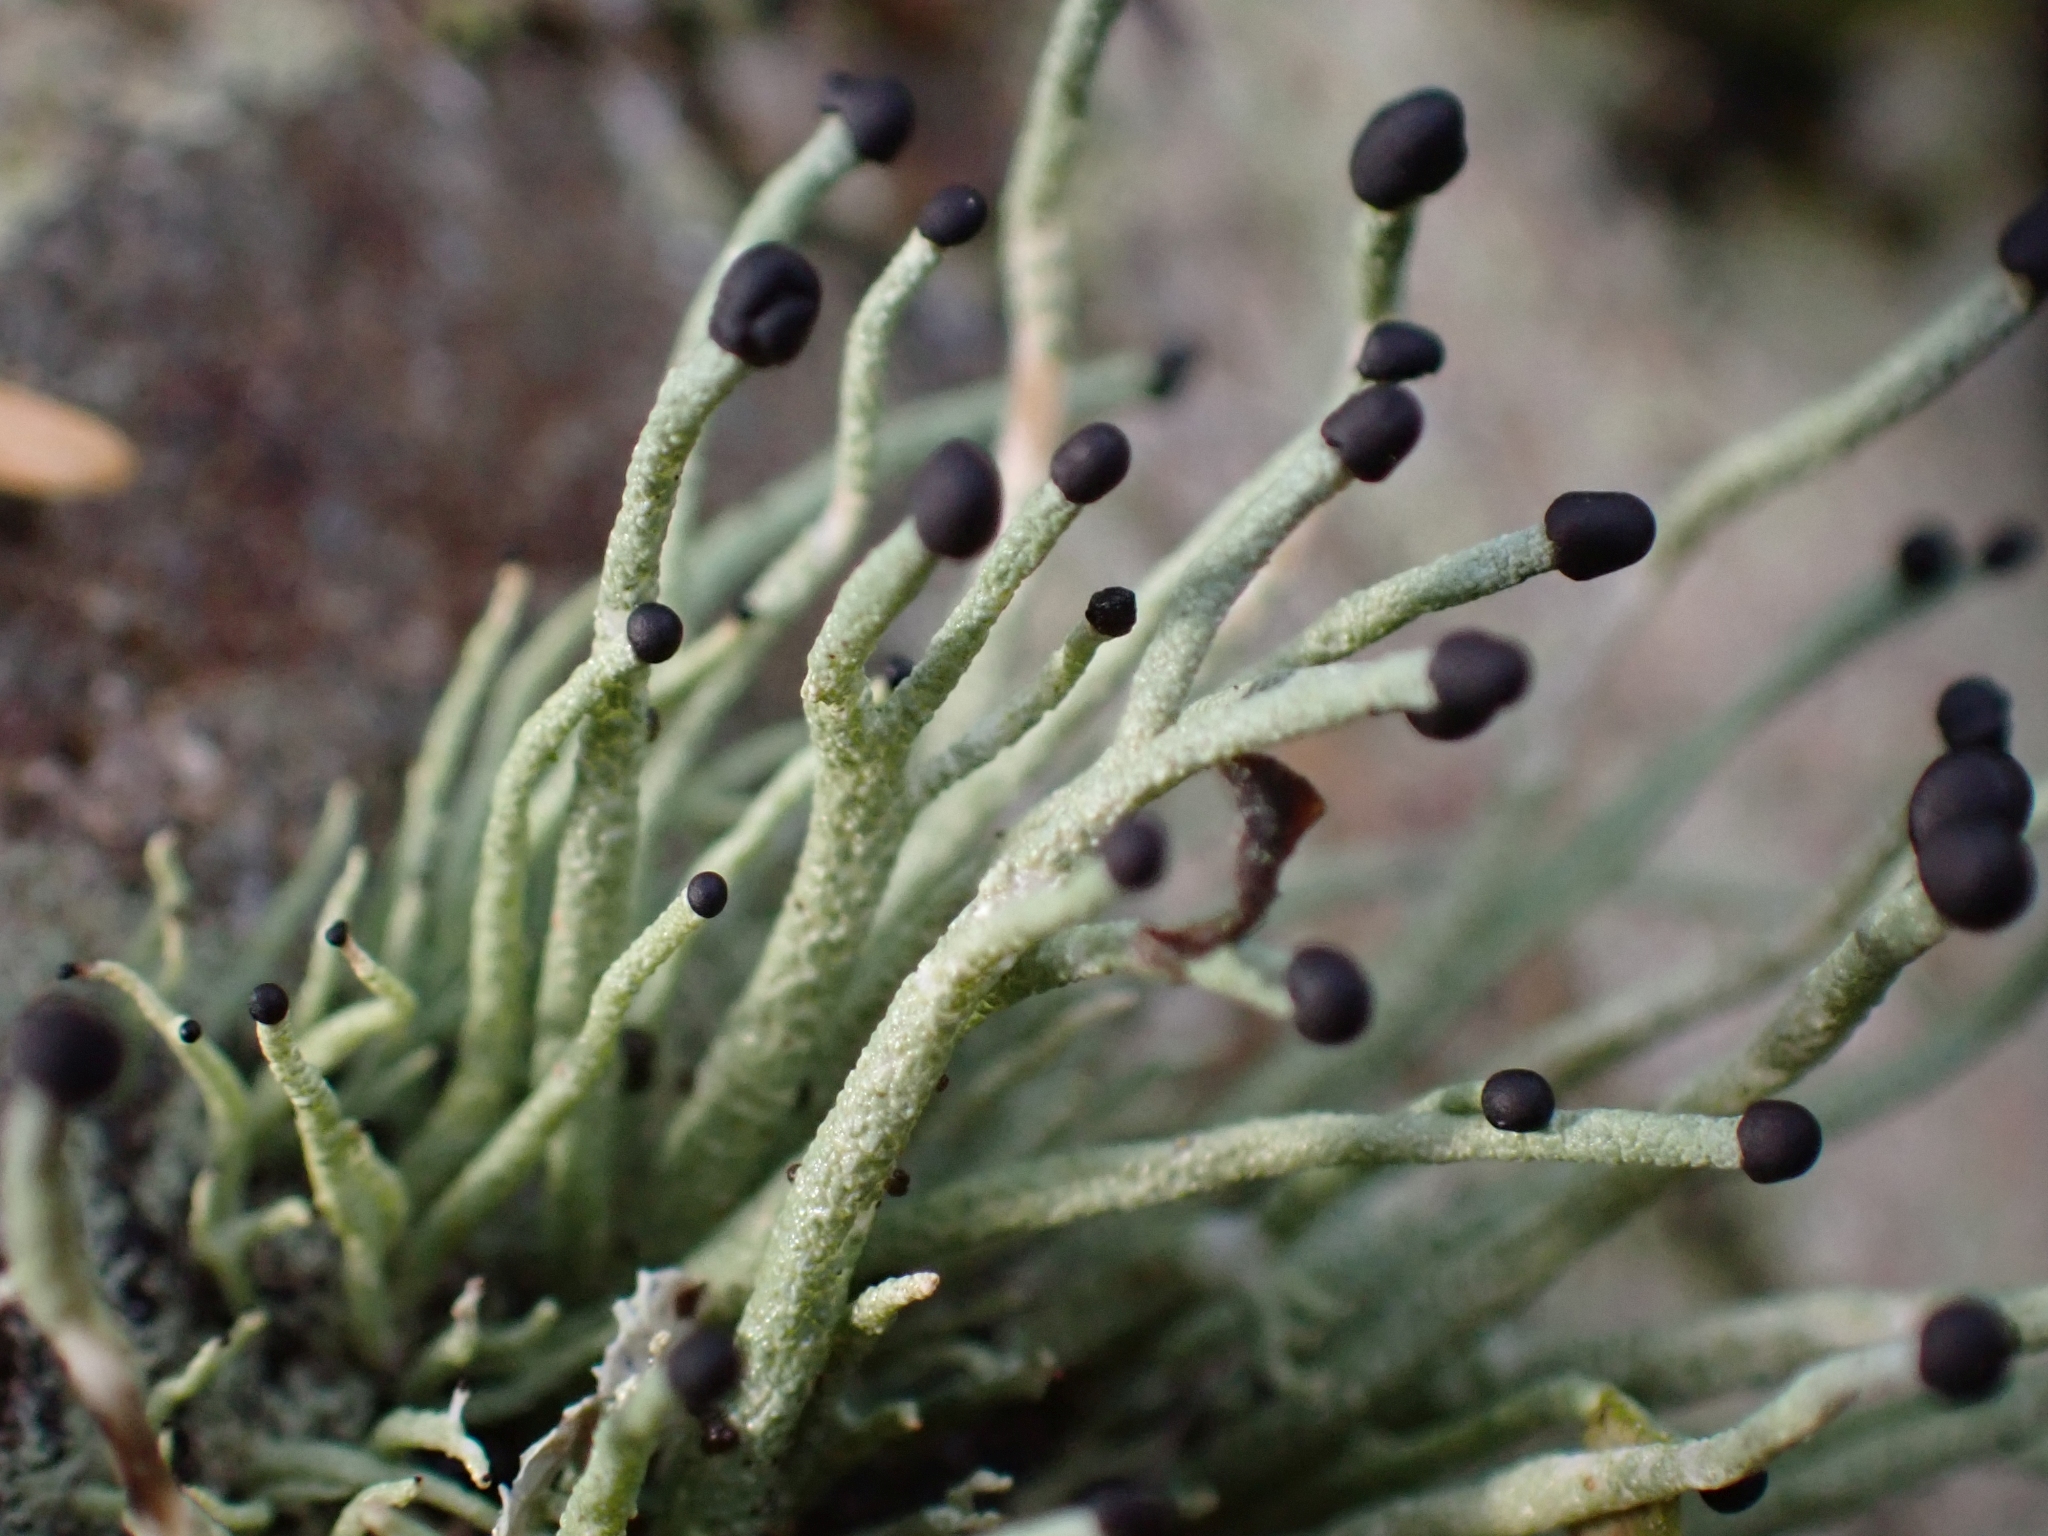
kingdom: Fungi
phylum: Ascomycota
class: Lecanoromycetes
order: Lecanorales
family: Cladoniaceae
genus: Pilophorus
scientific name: Pilophorus acicularis
